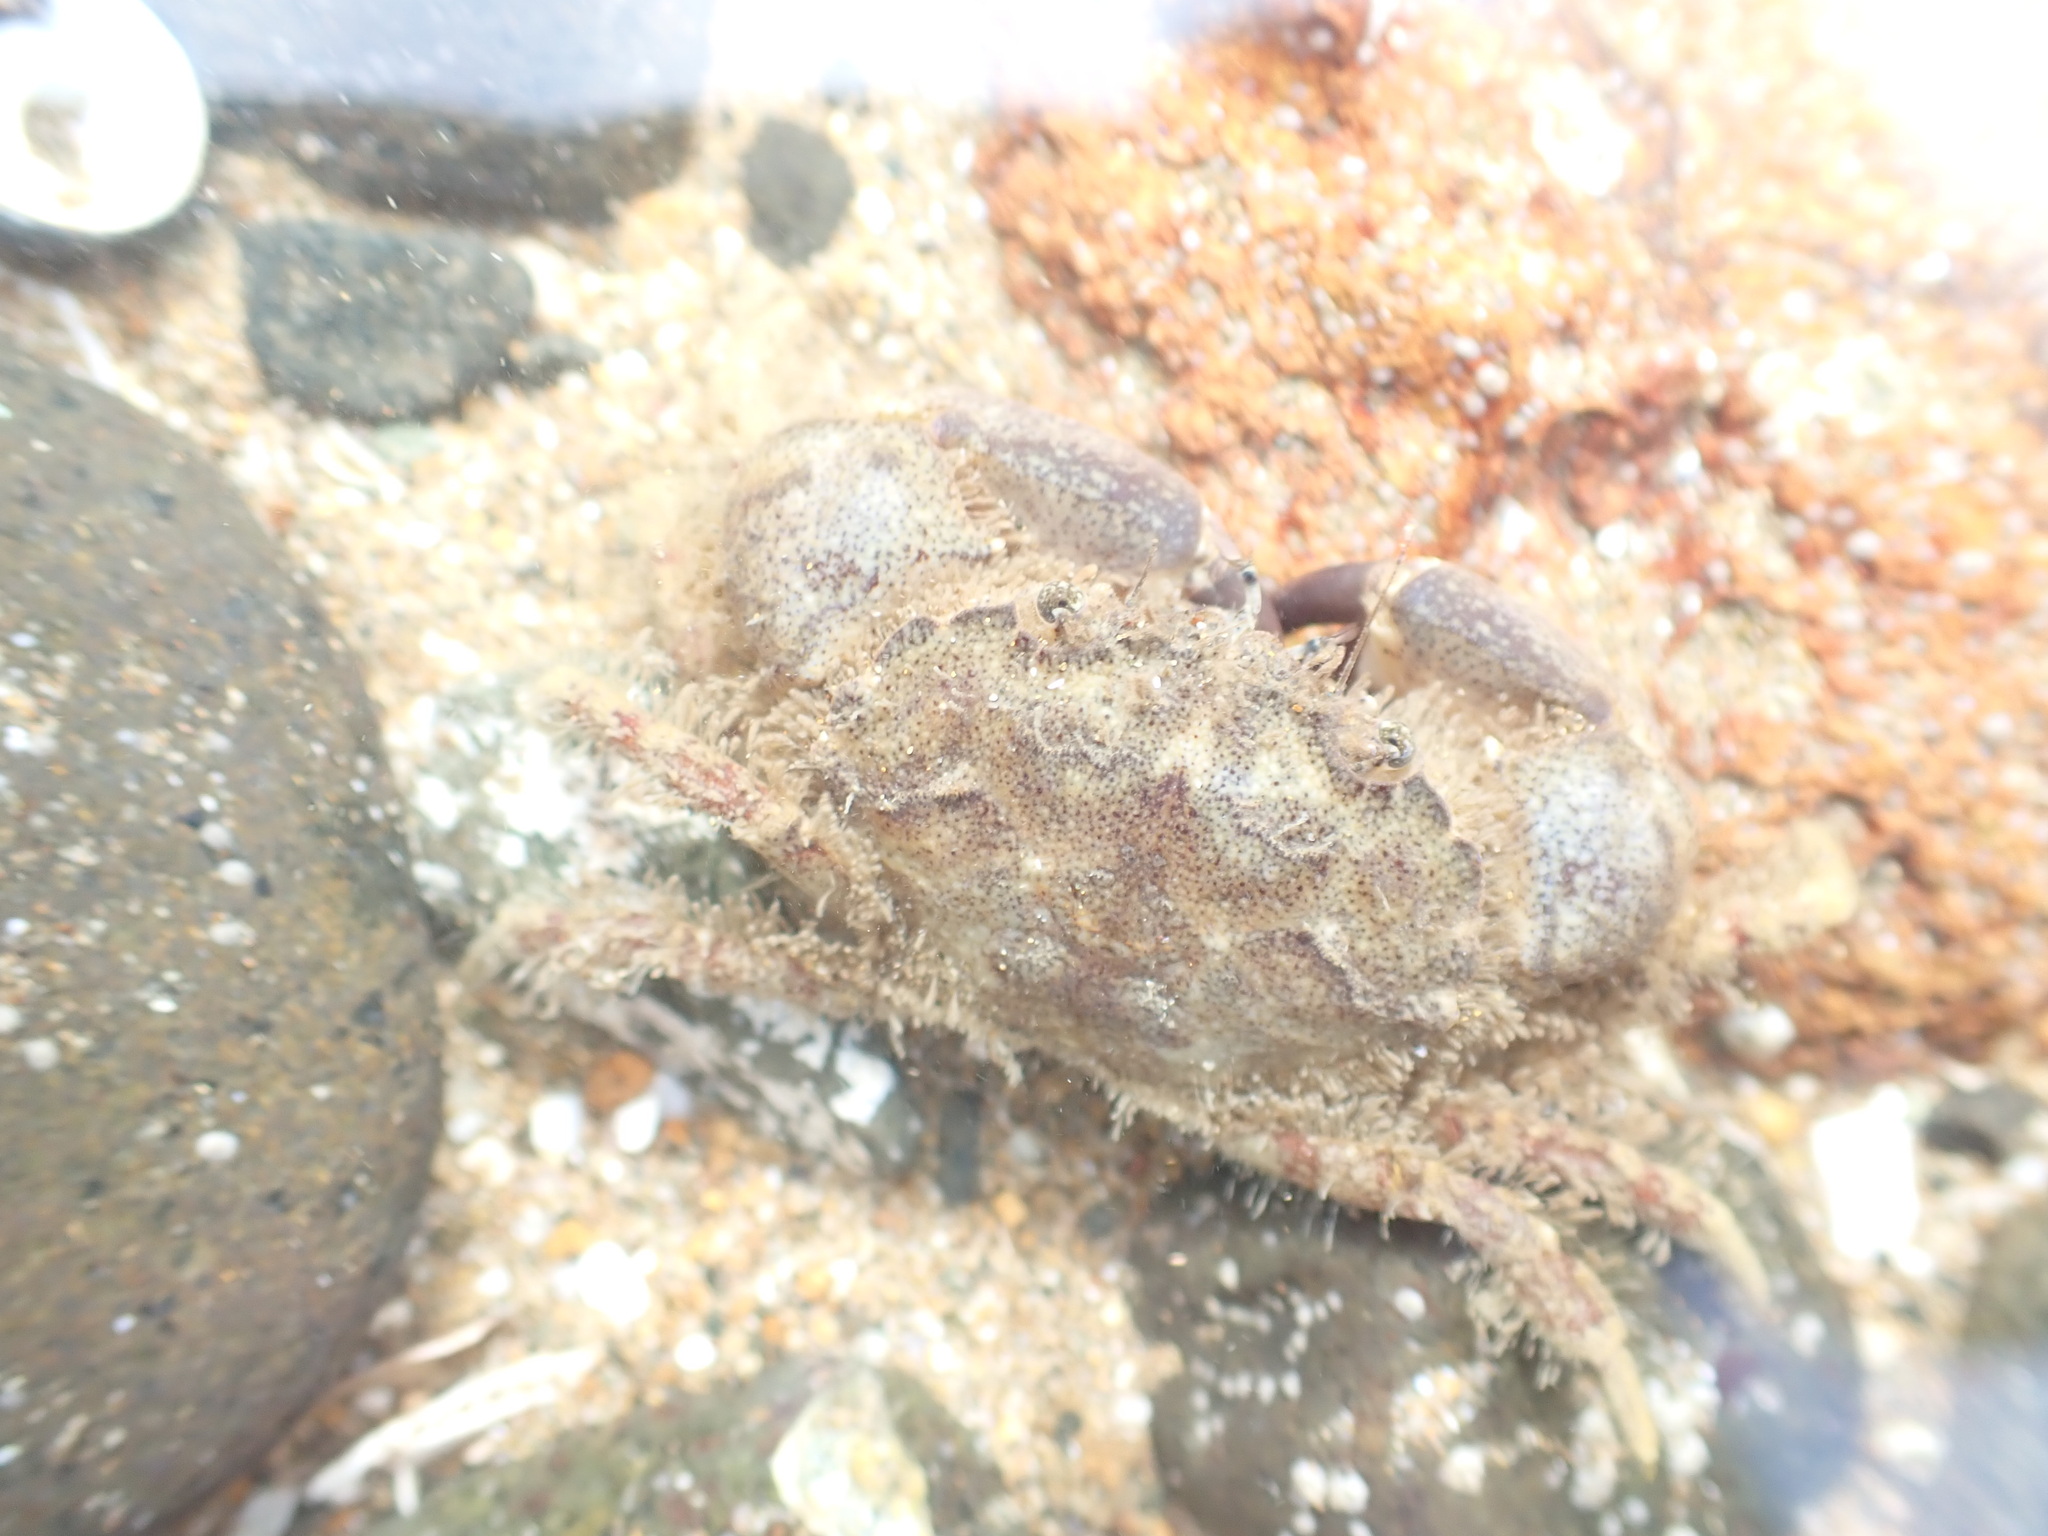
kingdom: Animalia
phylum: Arthropoda
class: Malacostraca
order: Decapoda
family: Pilumnidae
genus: Pilumnopeus
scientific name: Pilumnopeus serratifrons
